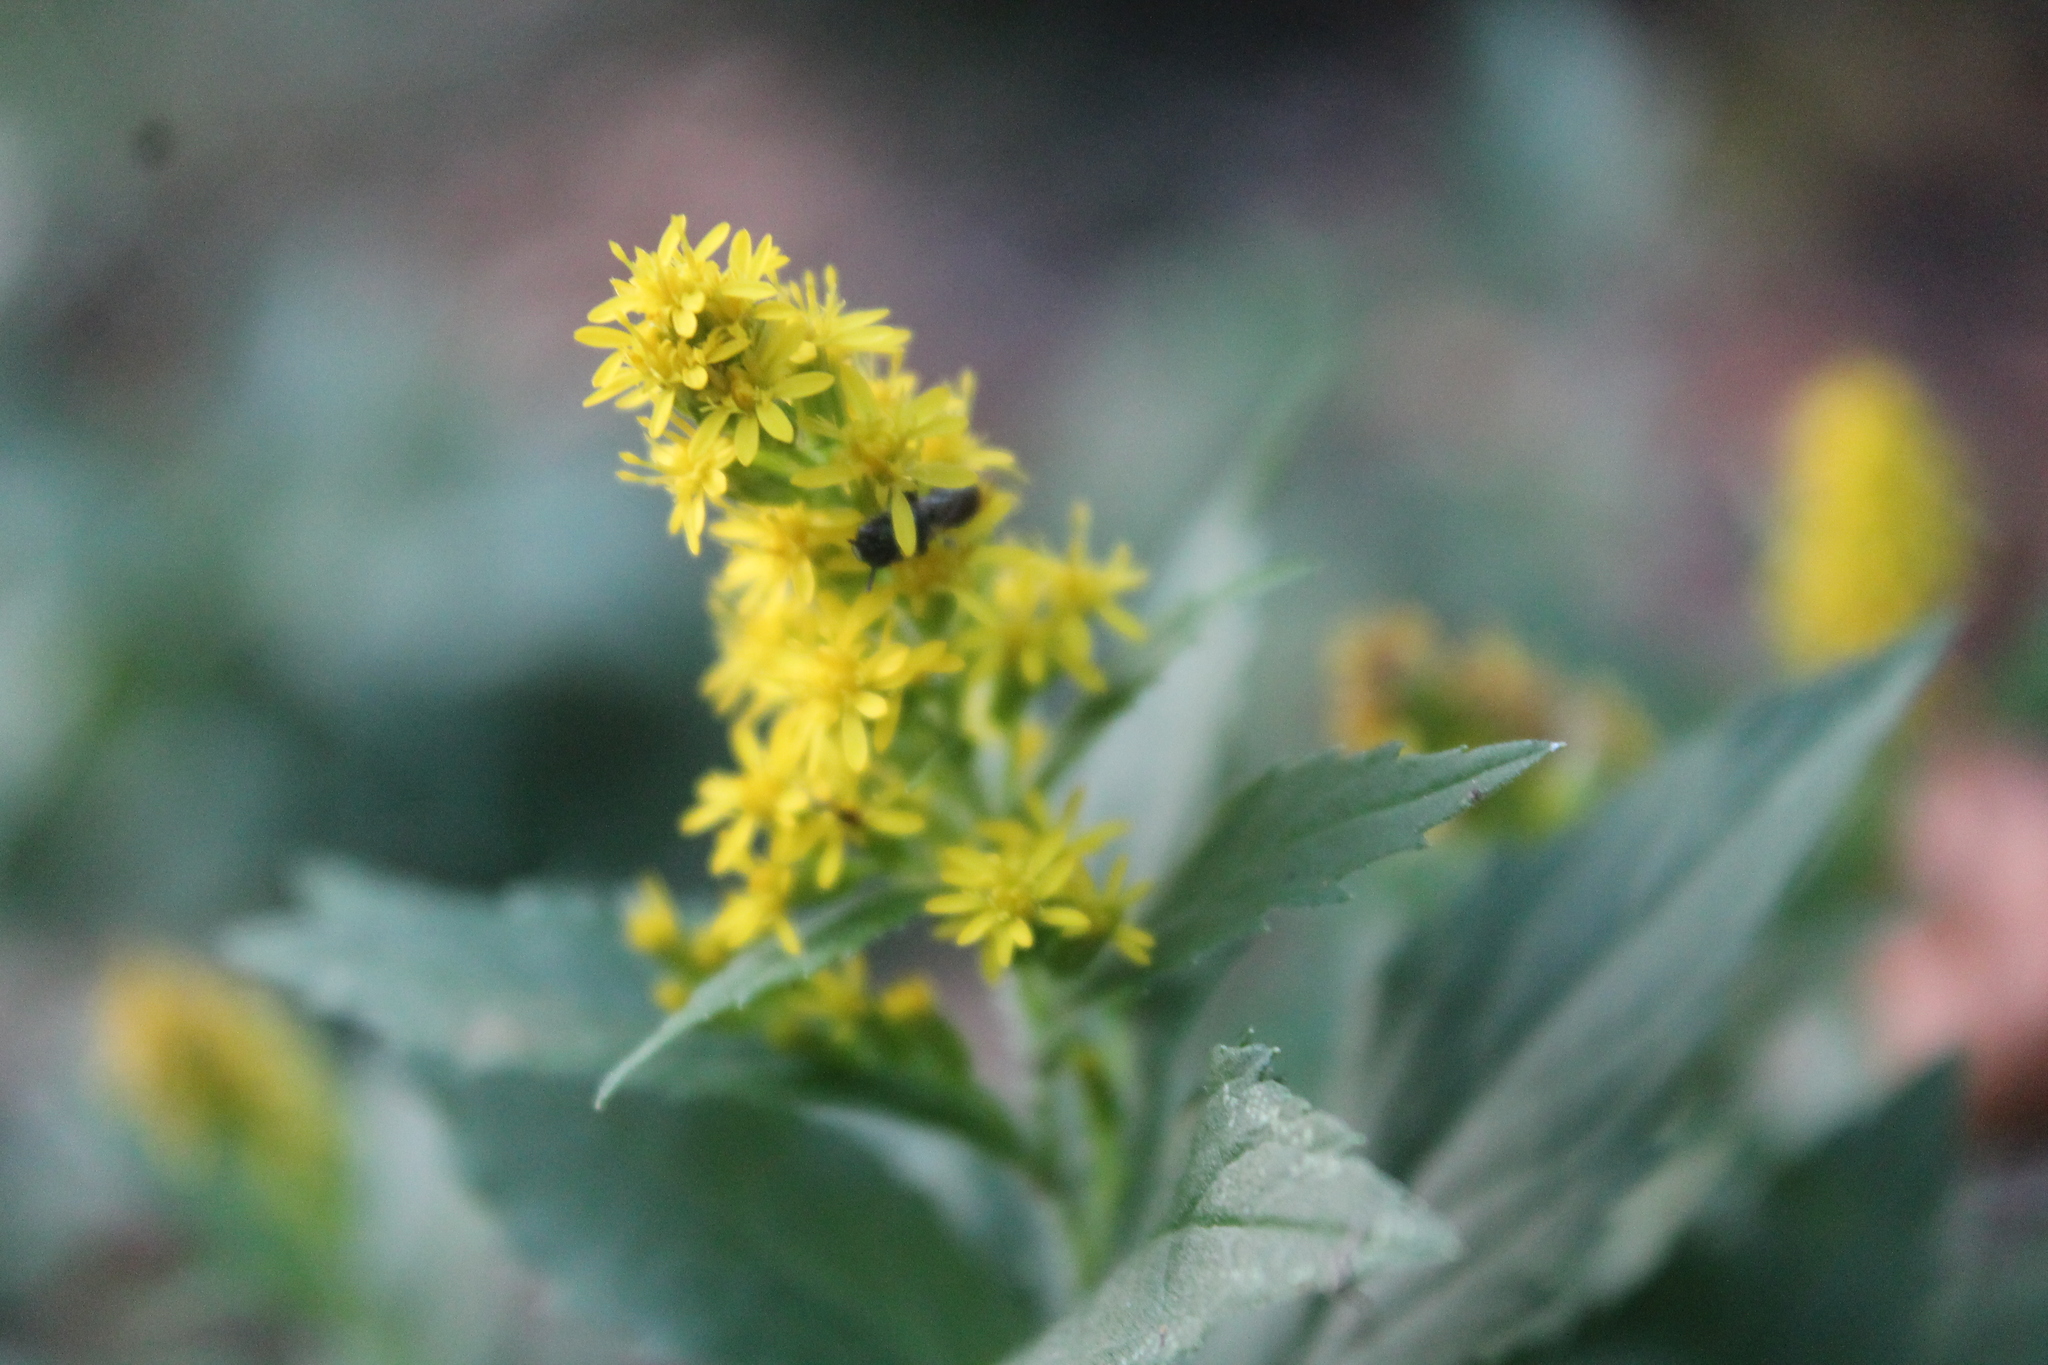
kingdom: Plantae
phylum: Tracheophyta
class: Magnoliopsida
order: Asterales
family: Asteraceae
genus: Solidago
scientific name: Solidago rugosa
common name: Rough-stemmed goldenrod
